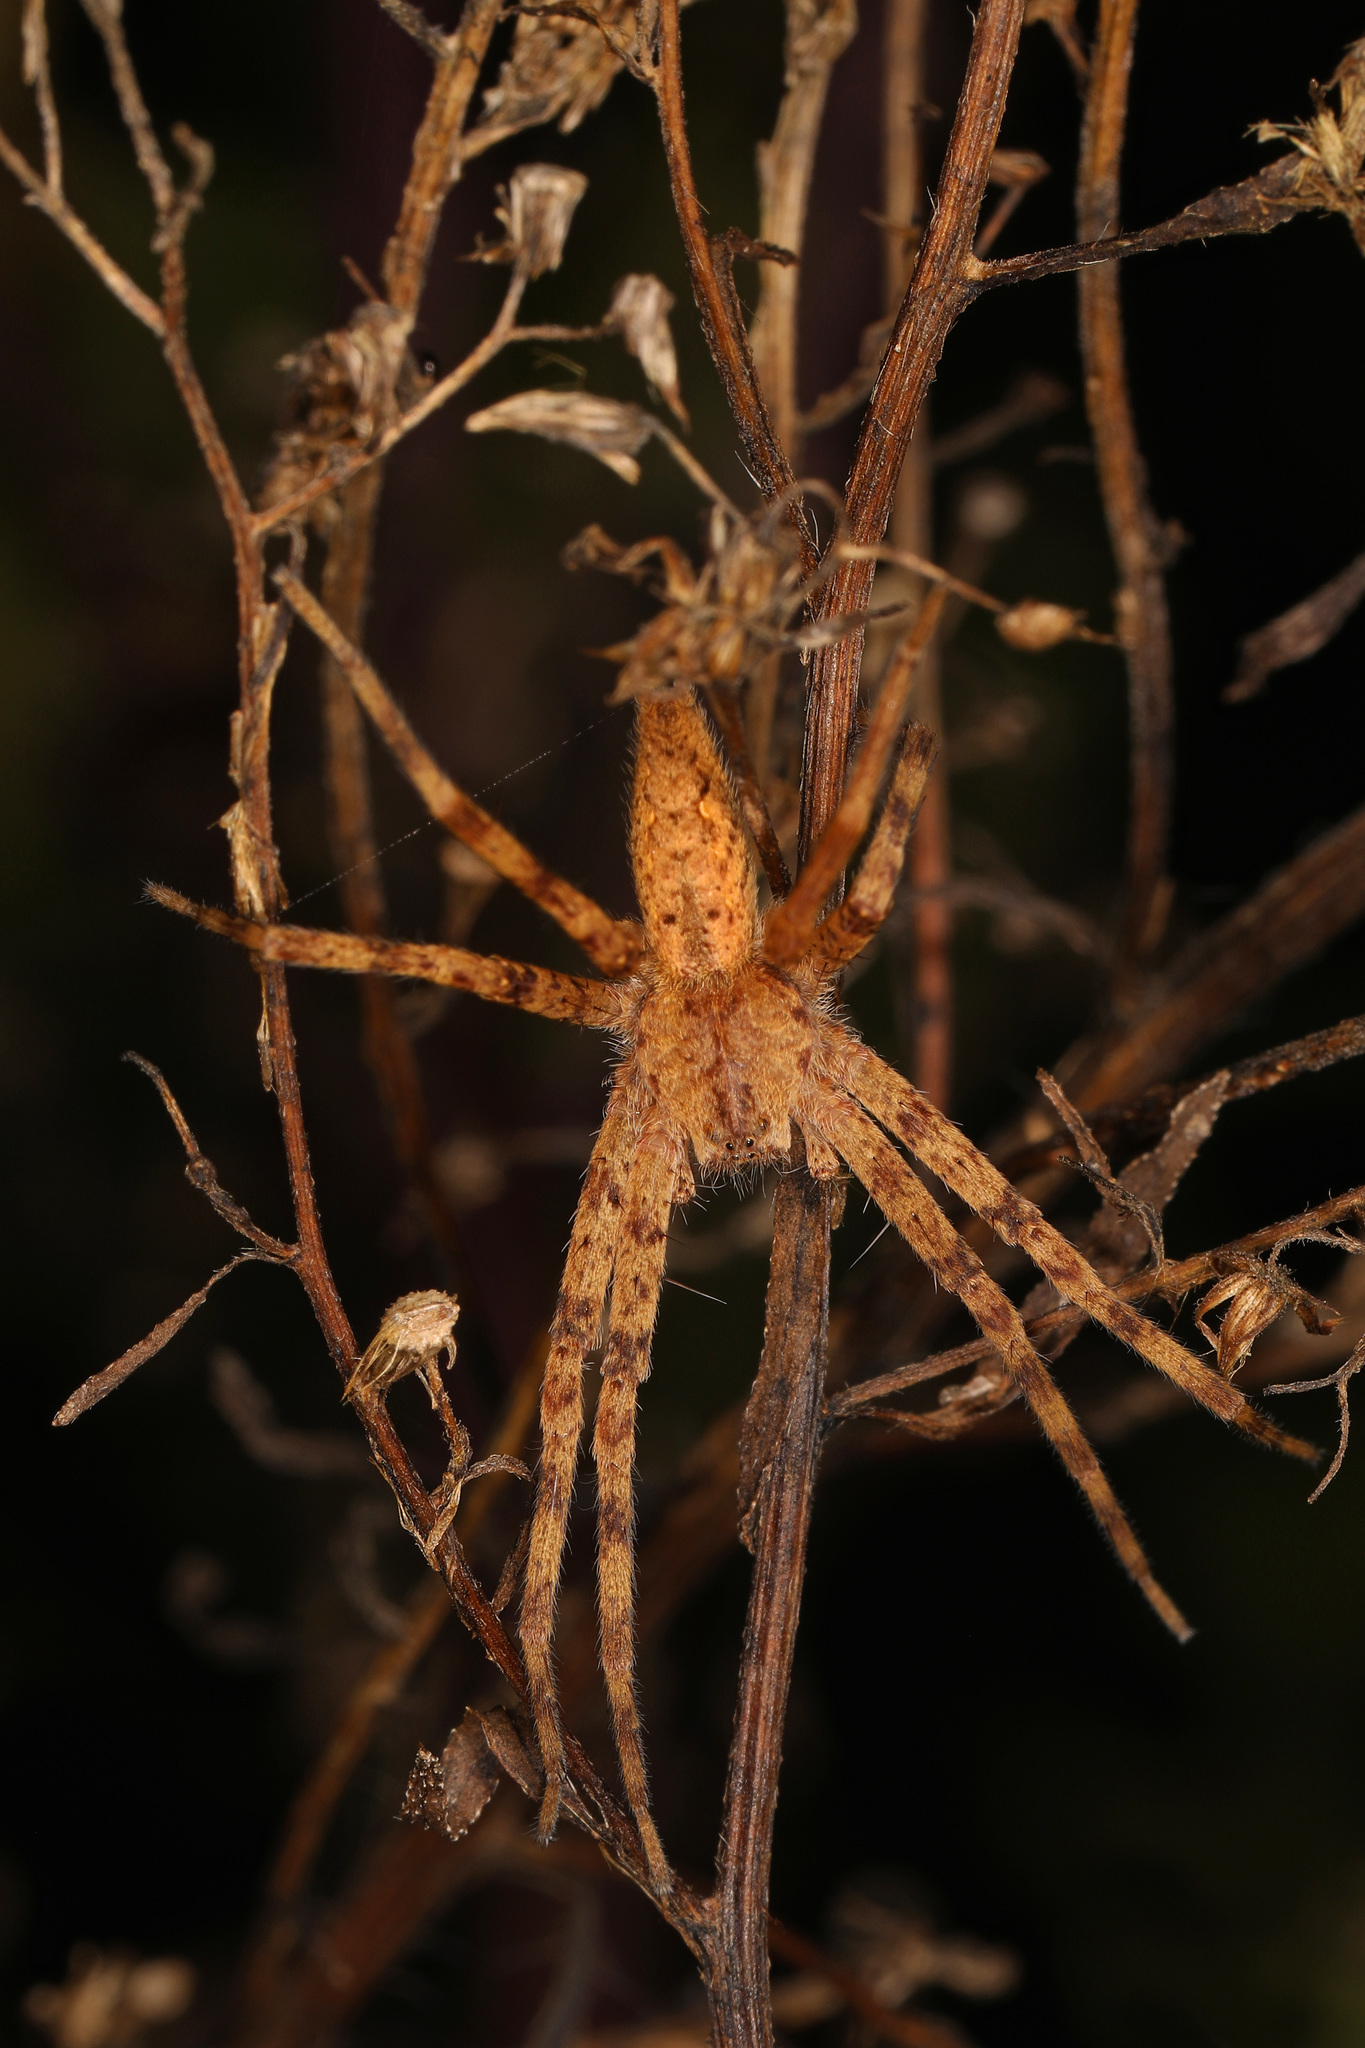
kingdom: Animalia
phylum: Arthropoda
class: Arachnida
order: Araneae
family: Pisauridae
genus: Pisaurina
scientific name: Pisaurina mira
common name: American nursery web spider
